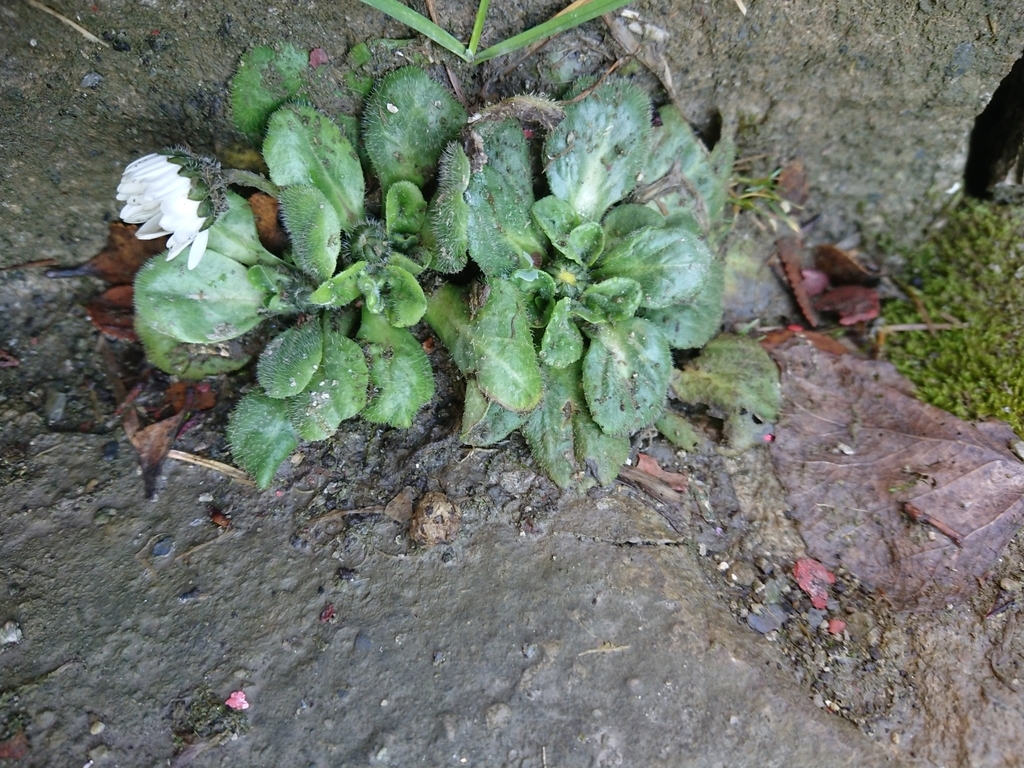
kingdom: Plantae
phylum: Tracheophyta
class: Magnoliopsida
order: Asterales
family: Asteraceae
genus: Bellis
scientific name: Bellis perennis
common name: Lawndaisy
